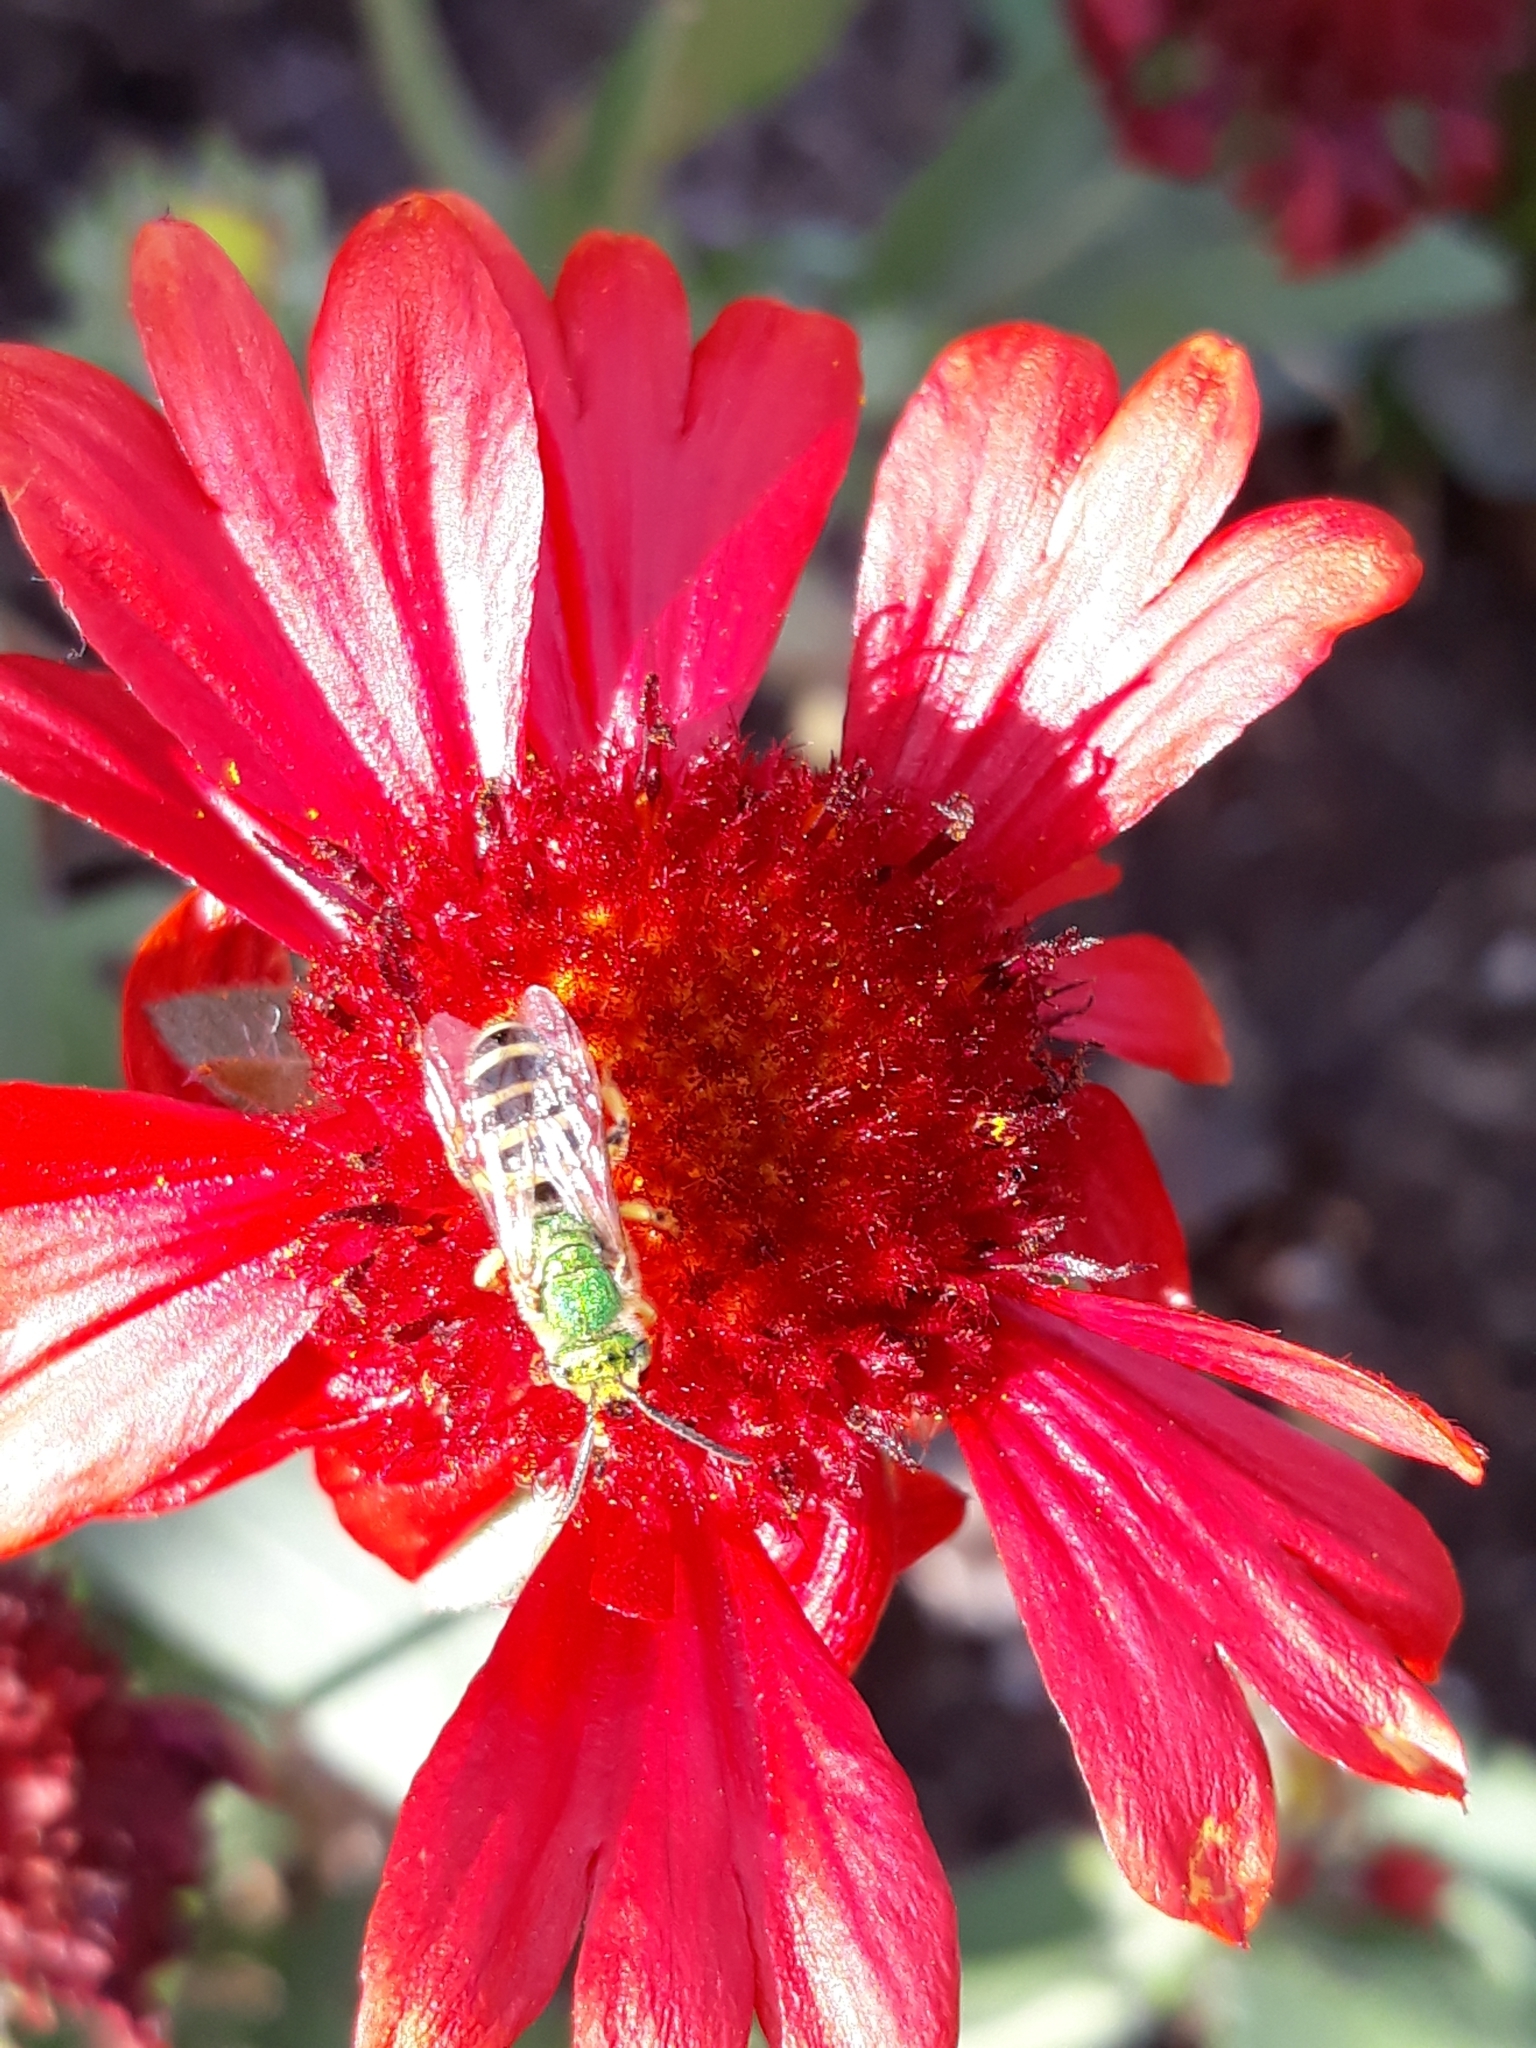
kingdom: Animalia
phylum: Arthropoda
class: Insecta
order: Hymenoptera
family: Halictidae
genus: Agapostemon
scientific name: Agapostemon
